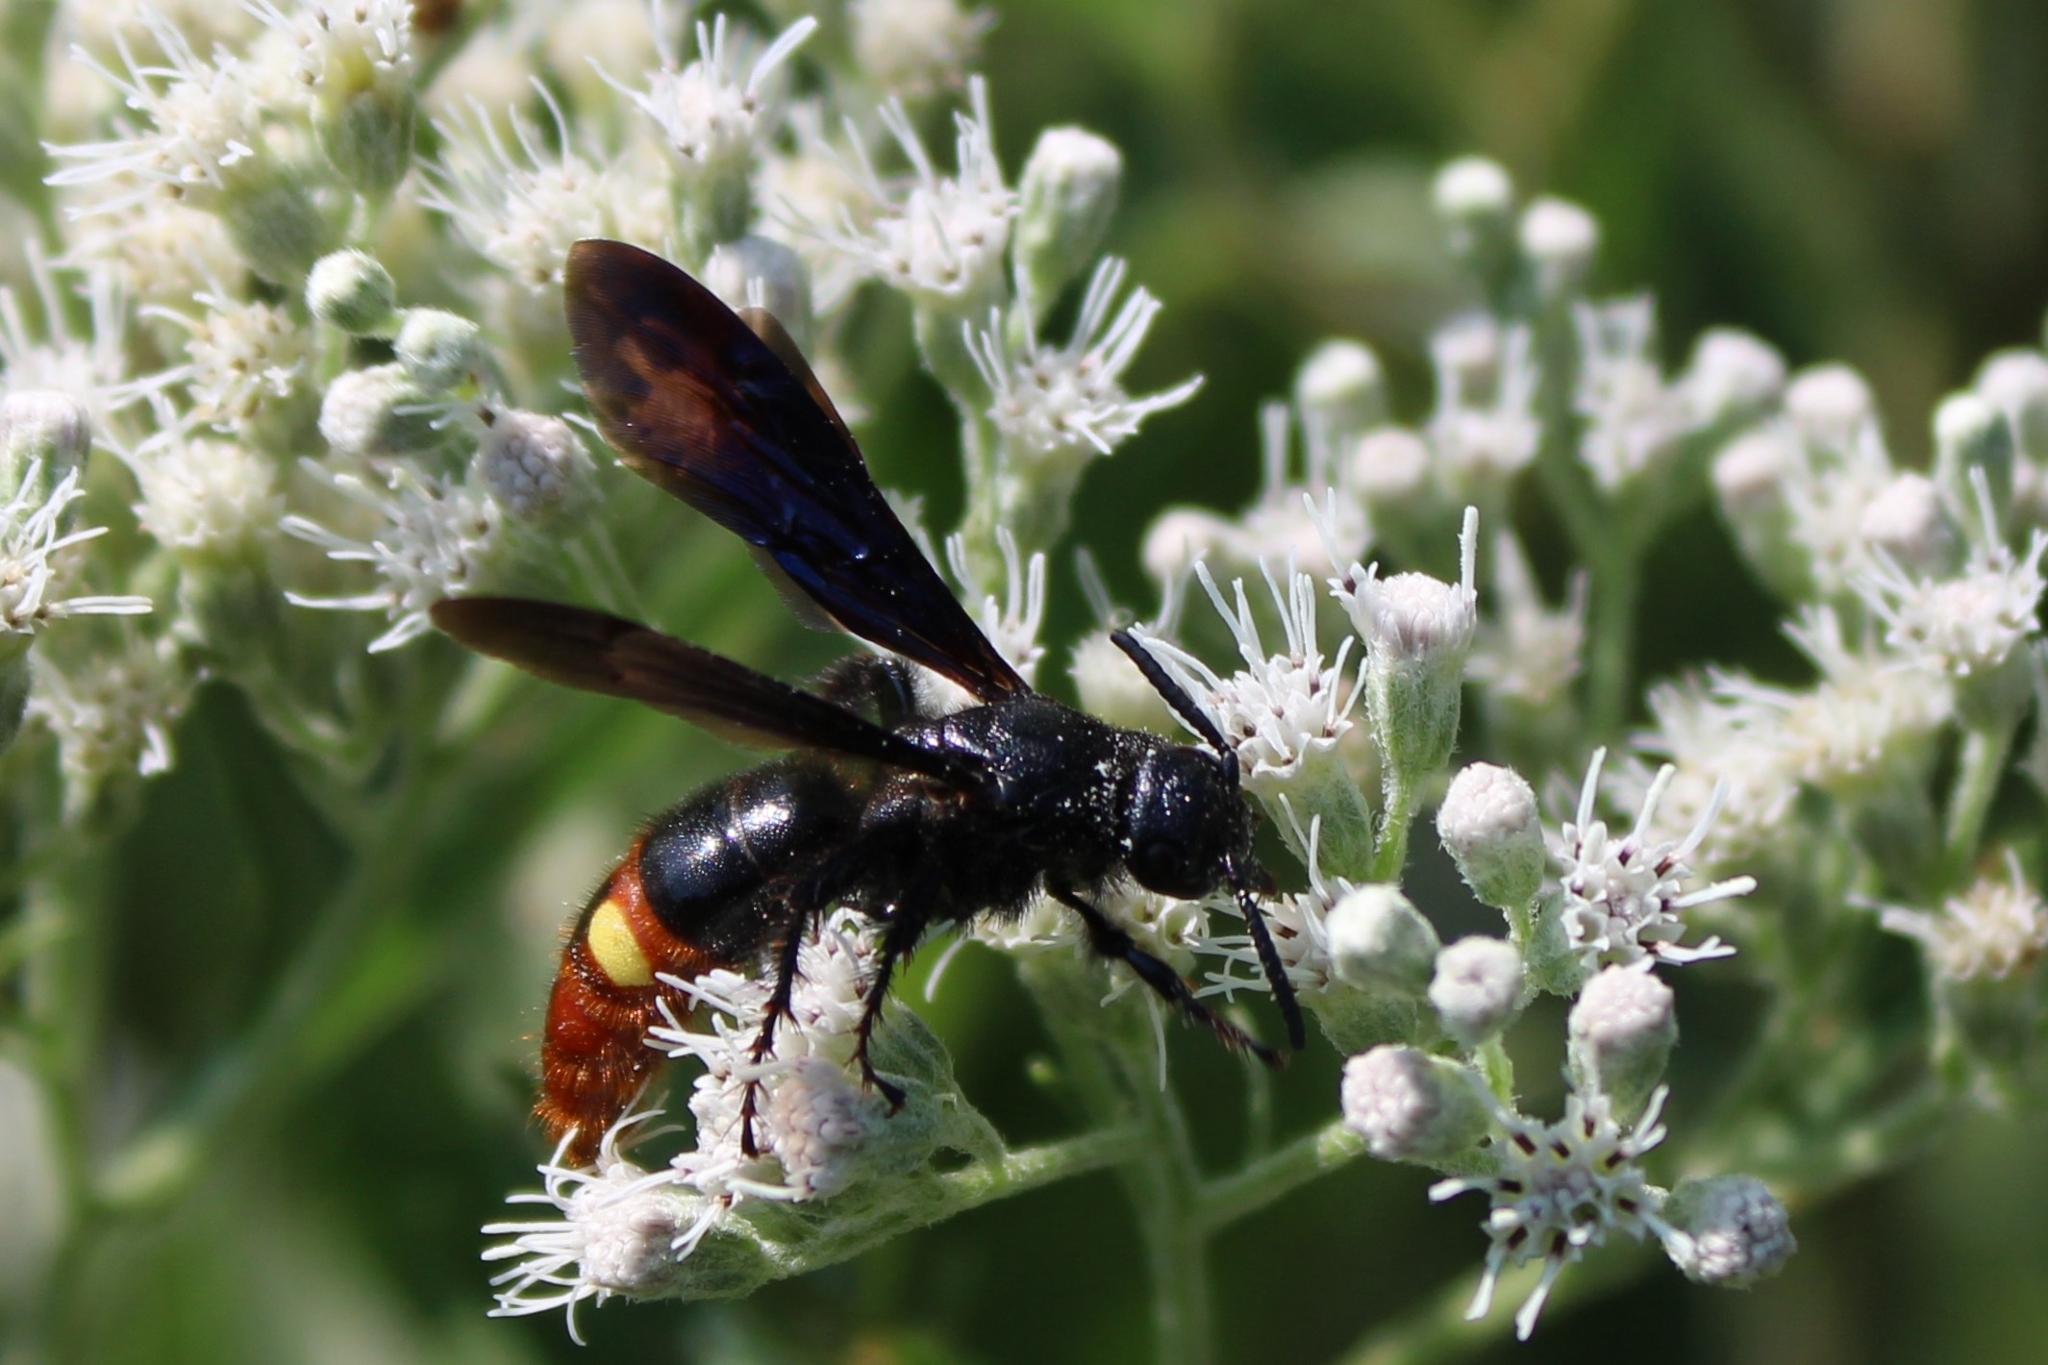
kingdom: Animalia
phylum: Arthropoda
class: Insecta
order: Hymenoptera
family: Scoliidae
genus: Scolia
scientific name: Scolia dubia
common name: Blue-winged scoliid wasp
